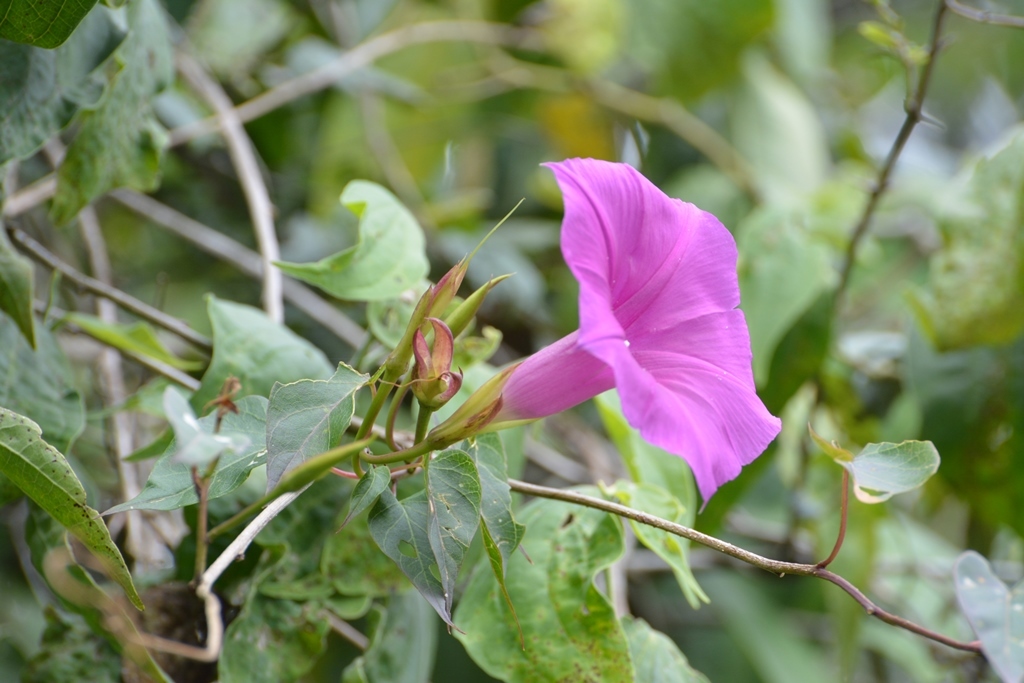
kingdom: Plantae
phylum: Tracheophyta
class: Magnoliopsida
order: Solanales
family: Convolvulaceae
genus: Ipomoea
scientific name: Ipomoea bernoulliana
